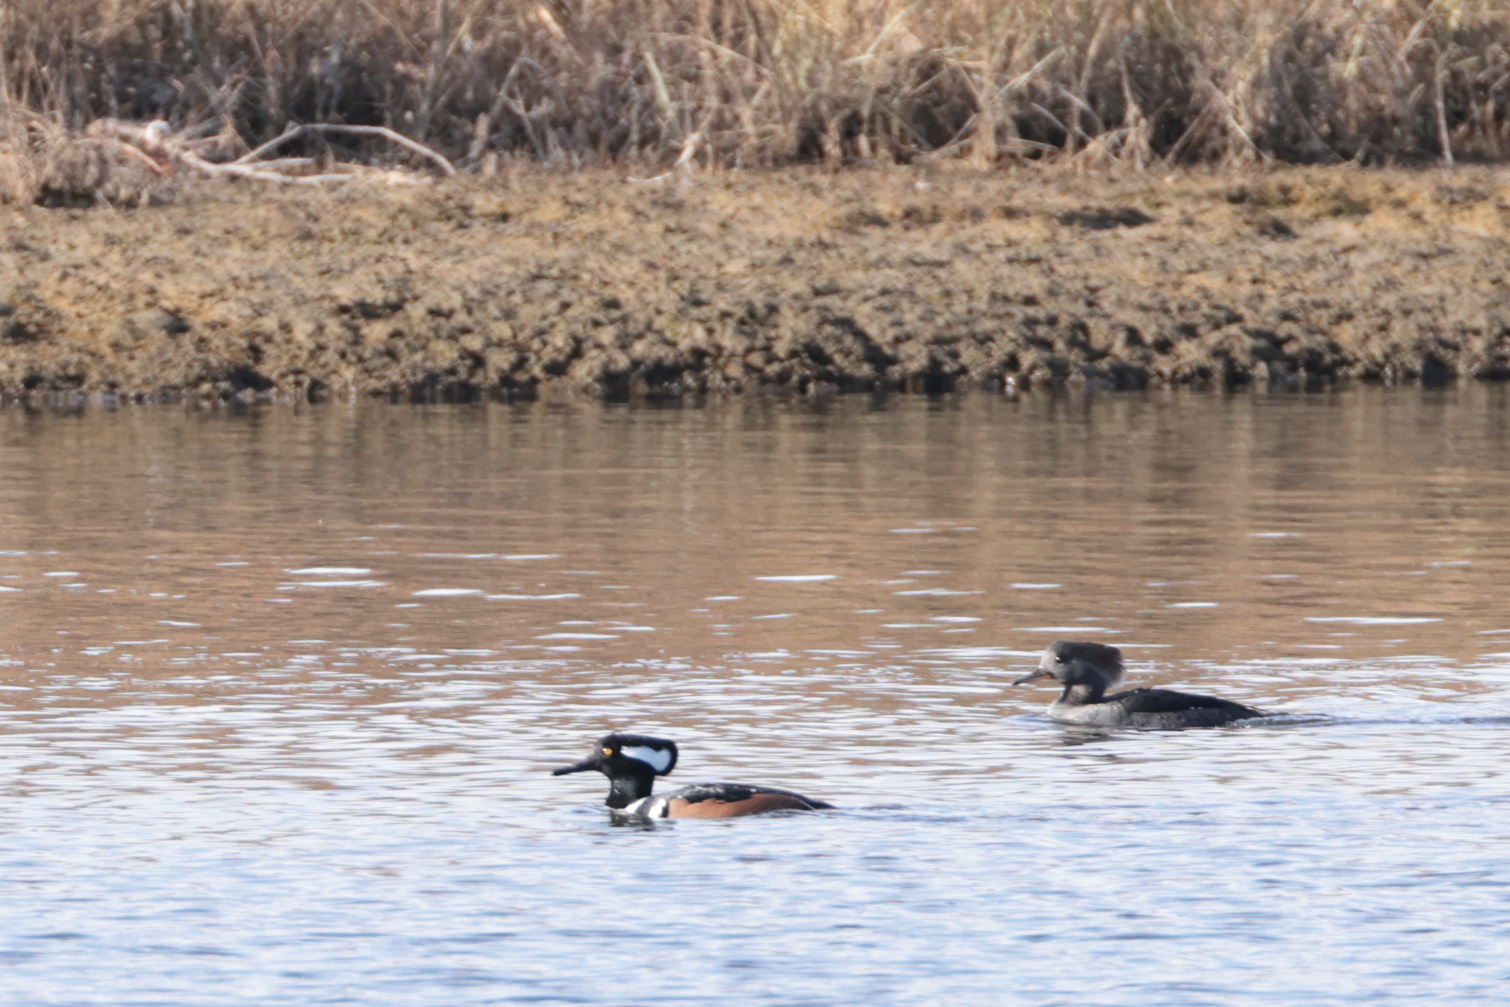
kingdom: Animalia
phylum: Chordata
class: Aves
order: Anseriformes
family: Anatidae
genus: Lophodytes
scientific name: Lophodytes cucullatus
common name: Hooded merganser
